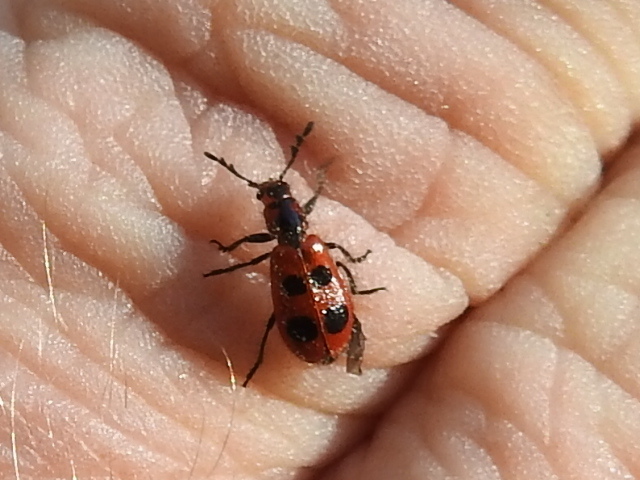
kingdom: Animalia
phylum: Arthropoda
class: Insecta
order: Coleoptera
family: Cleridae
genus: Pelonides
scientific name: Pelonides
